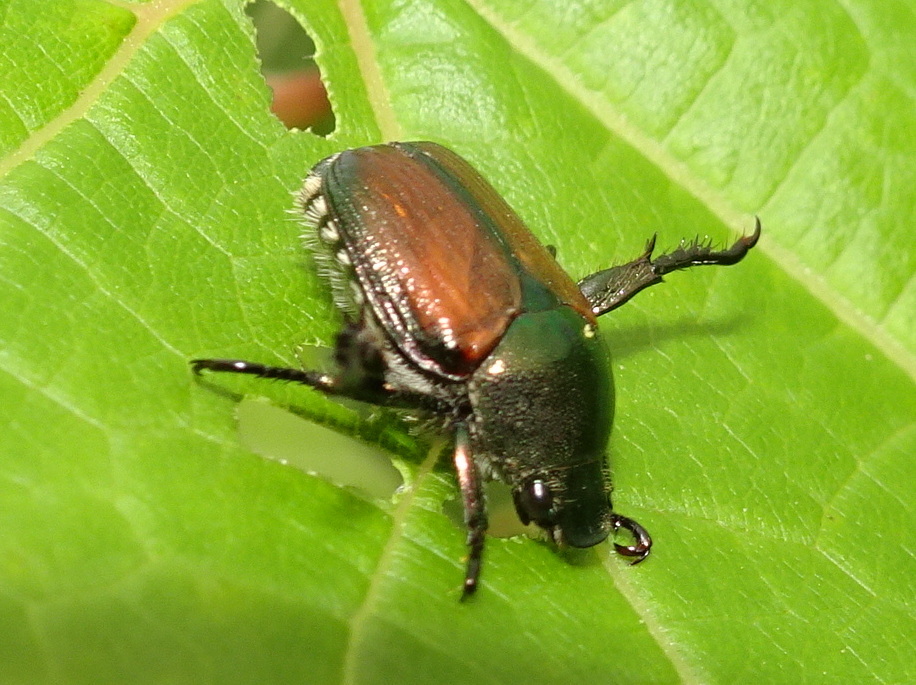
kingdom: Animalia
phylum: Arthropoda
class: Insecta
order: Coleoptera
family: Scarabaeidae
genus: Popillia
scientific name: Popillia japonica
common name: Japanese beetle
